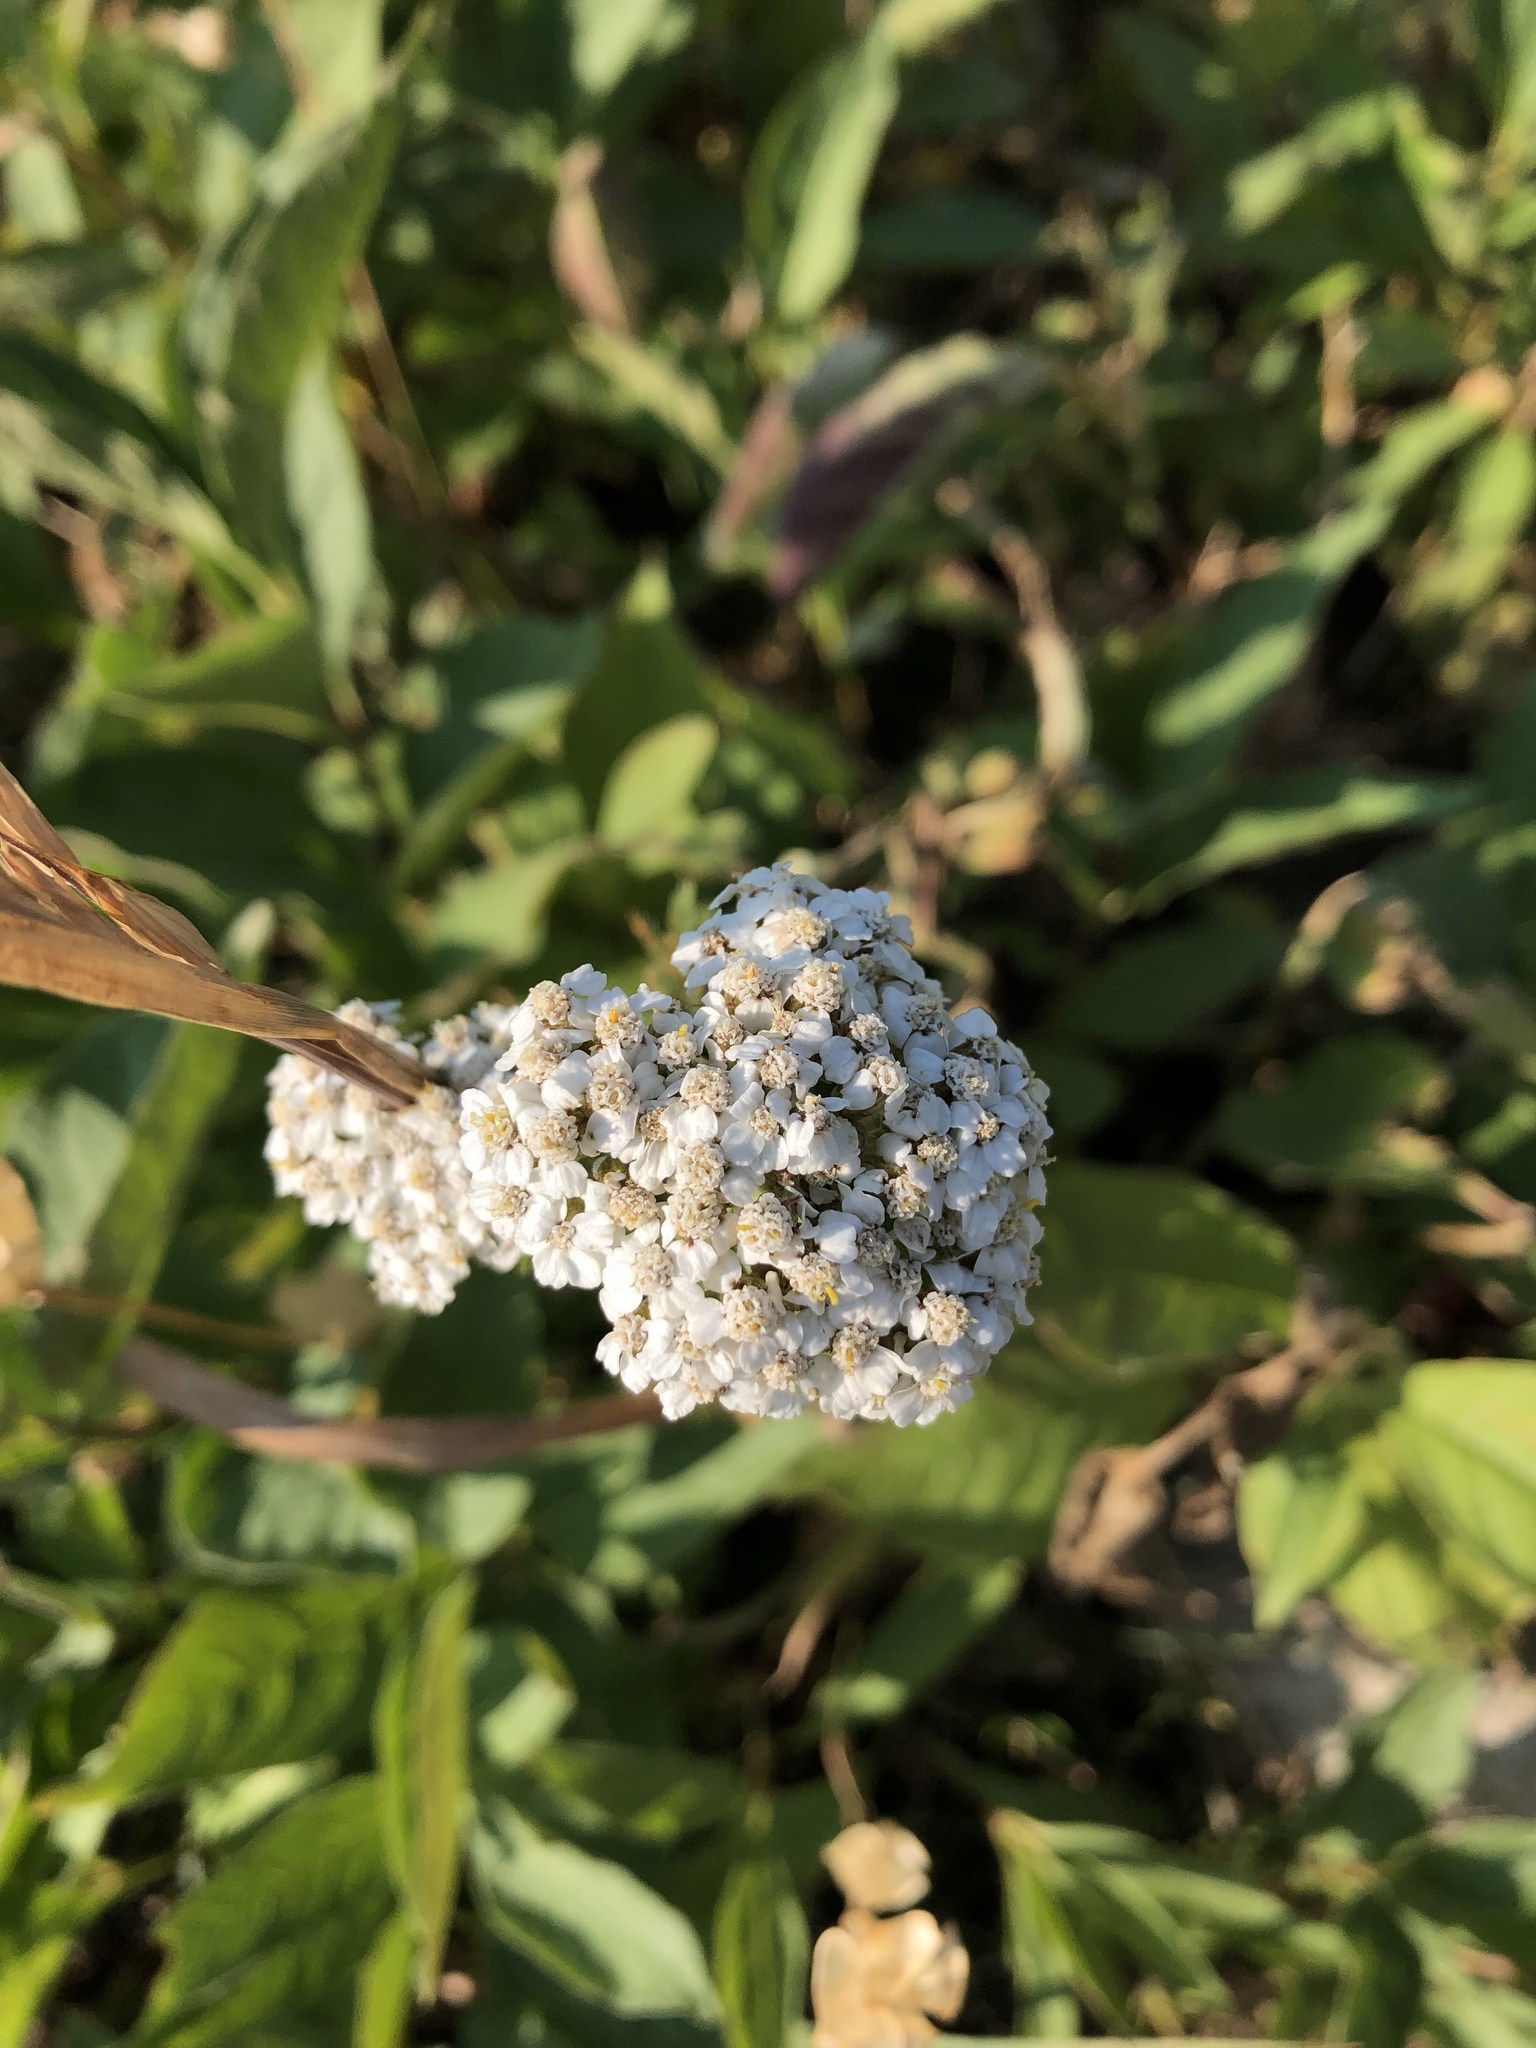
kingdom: Plantae
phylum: Tracheophyta
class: Magnoliopsida
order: Asterales
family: Asteraceae
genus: Achillea
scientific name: Achillea millefolium
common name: Yarrow
